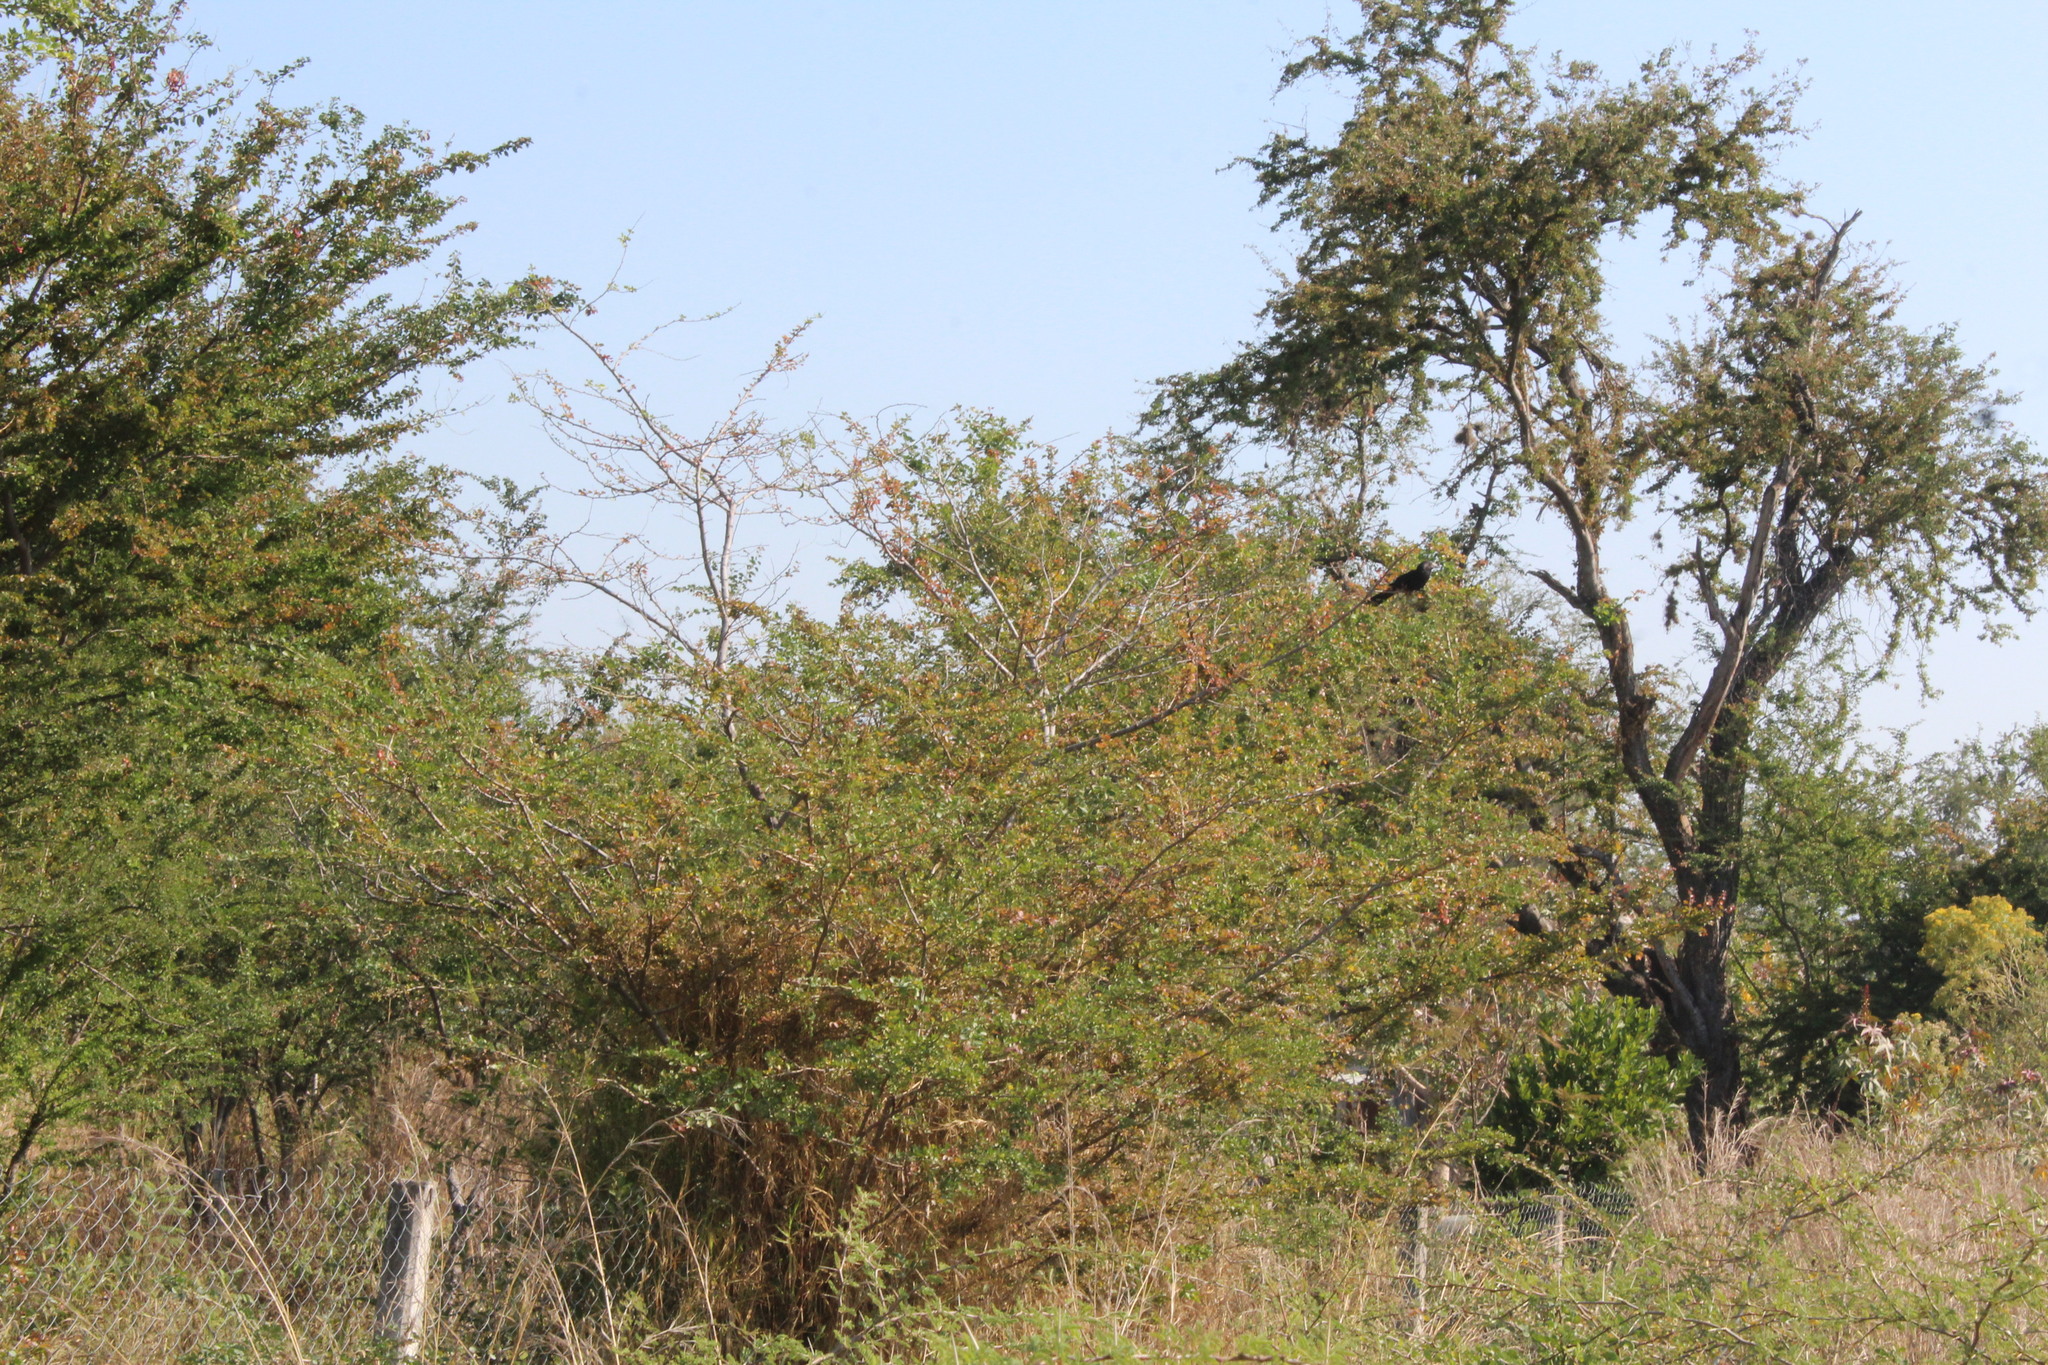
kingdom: Animalia
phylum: Chordata
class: Aves
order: Cuculiformes
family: Cuculidae
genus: Crotophaga
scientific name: Crotophaga sulcirostris
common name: Groove-billed ani
